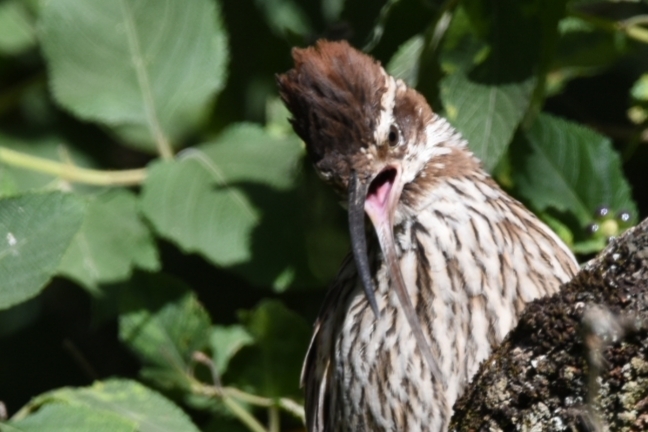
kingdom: Animalia
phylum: Chordata
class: Aves
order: Passeriformes
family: Furnariidae
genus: Drymornis
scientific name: Drymornis bridgesii
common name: Scimitar-billed woodcreeper
